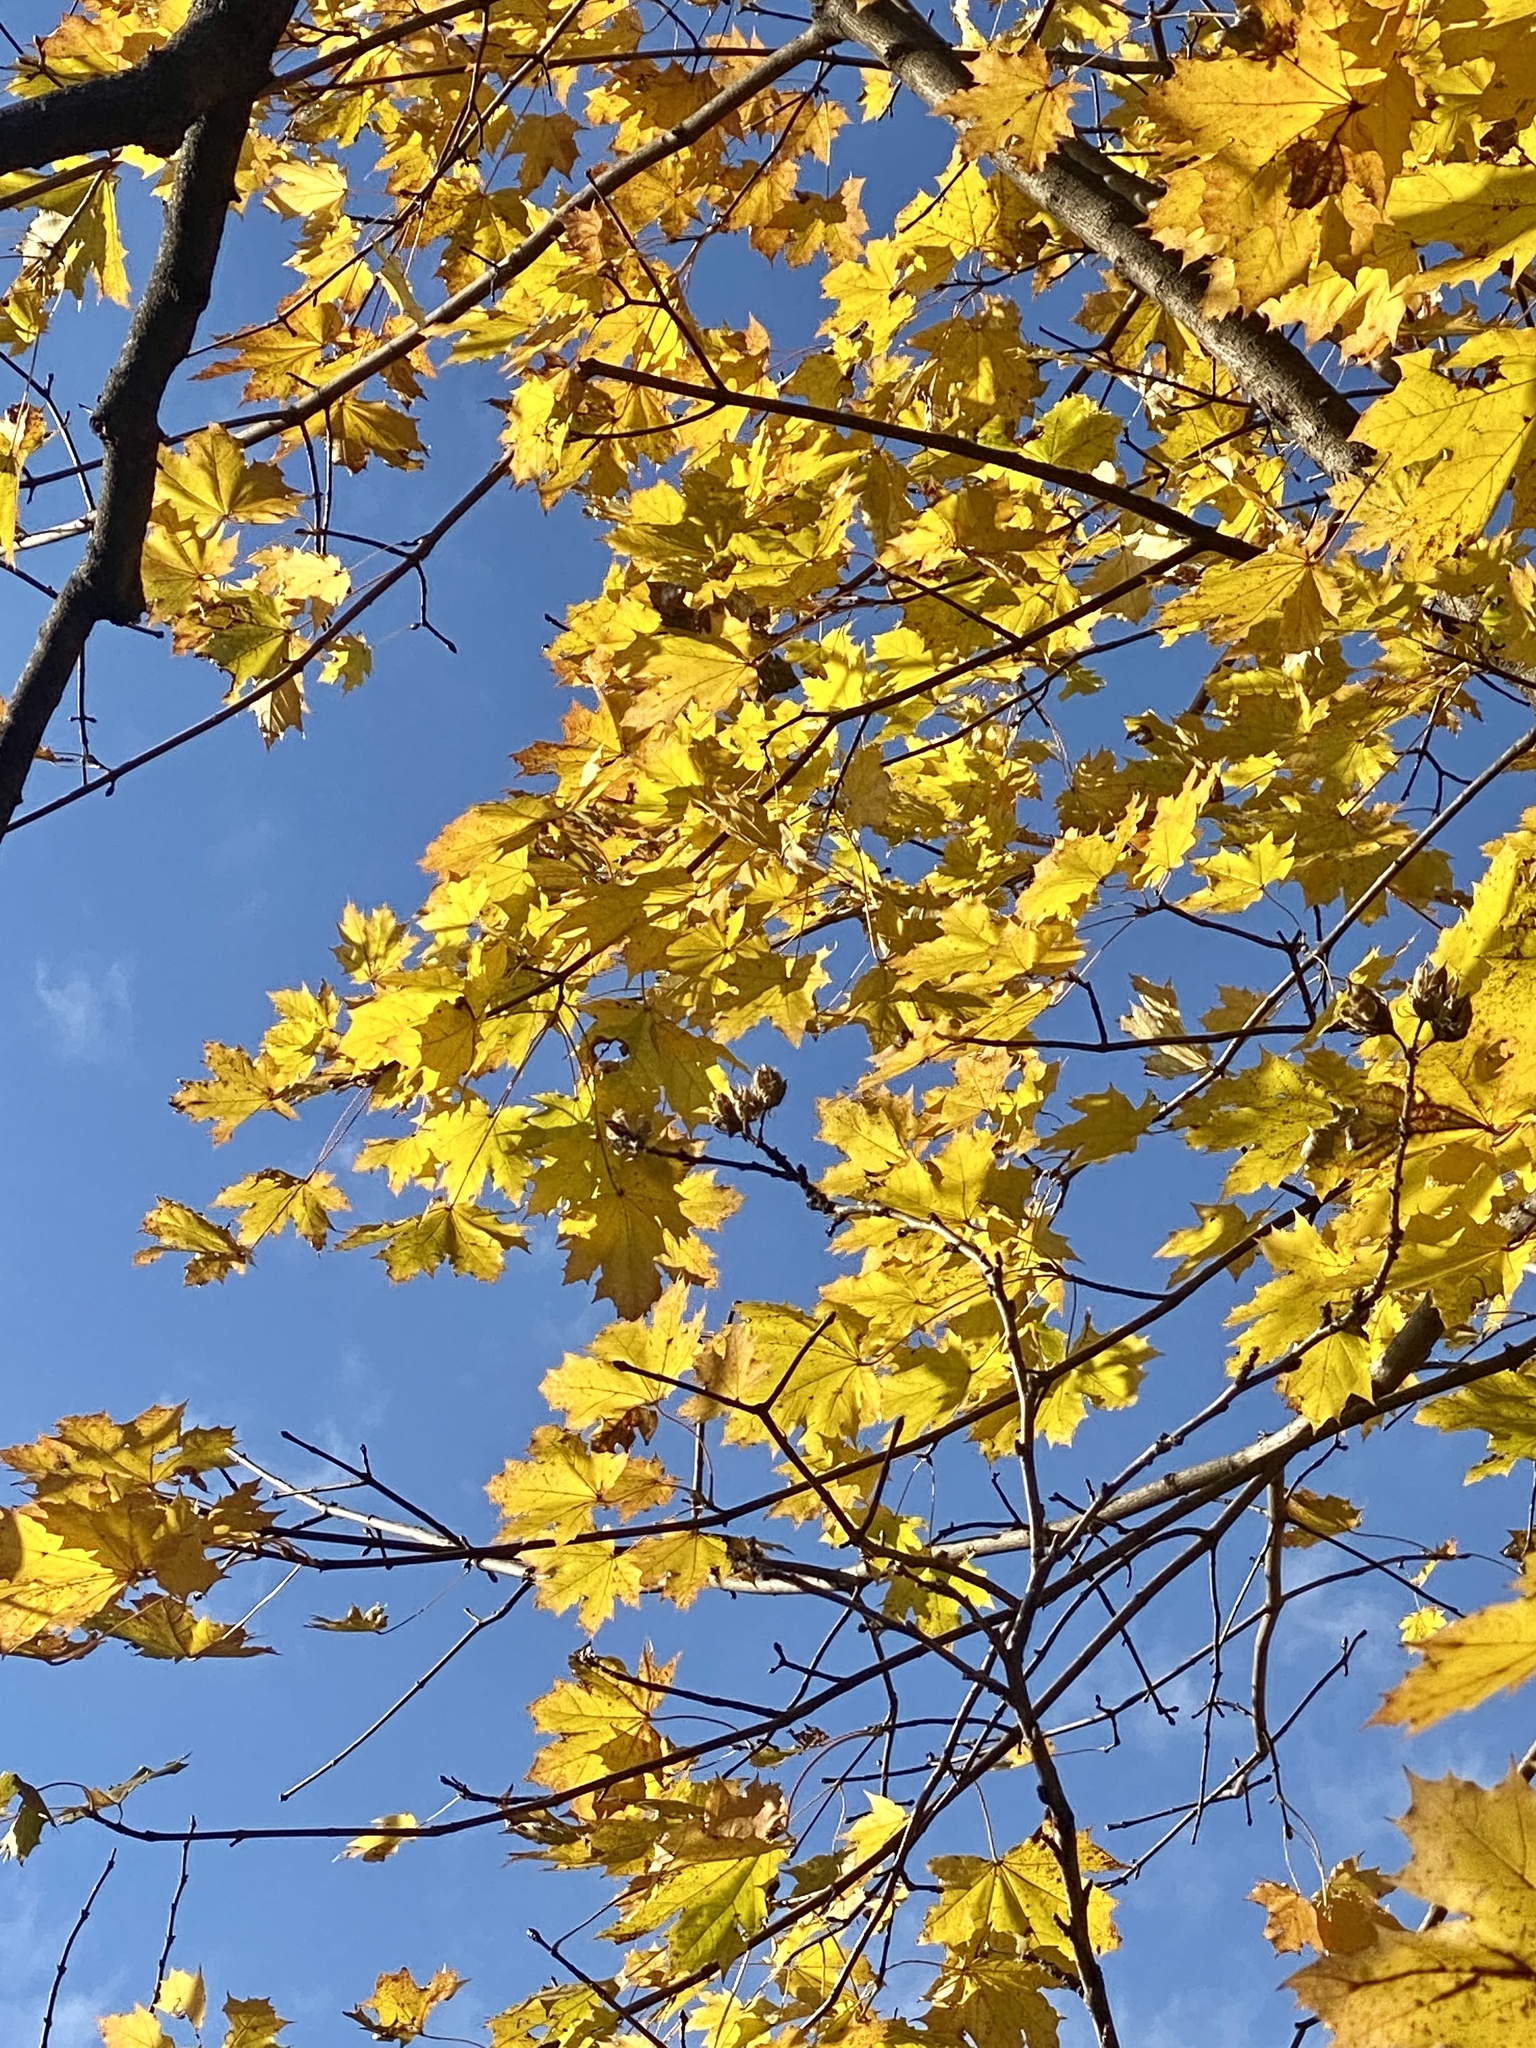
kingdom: Plantae
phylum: Tracheophyta
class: Magnoliopsida
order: Sapindales
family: Sapindaceae
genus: Acer
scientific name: Acer platanoides
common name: Norway maple
